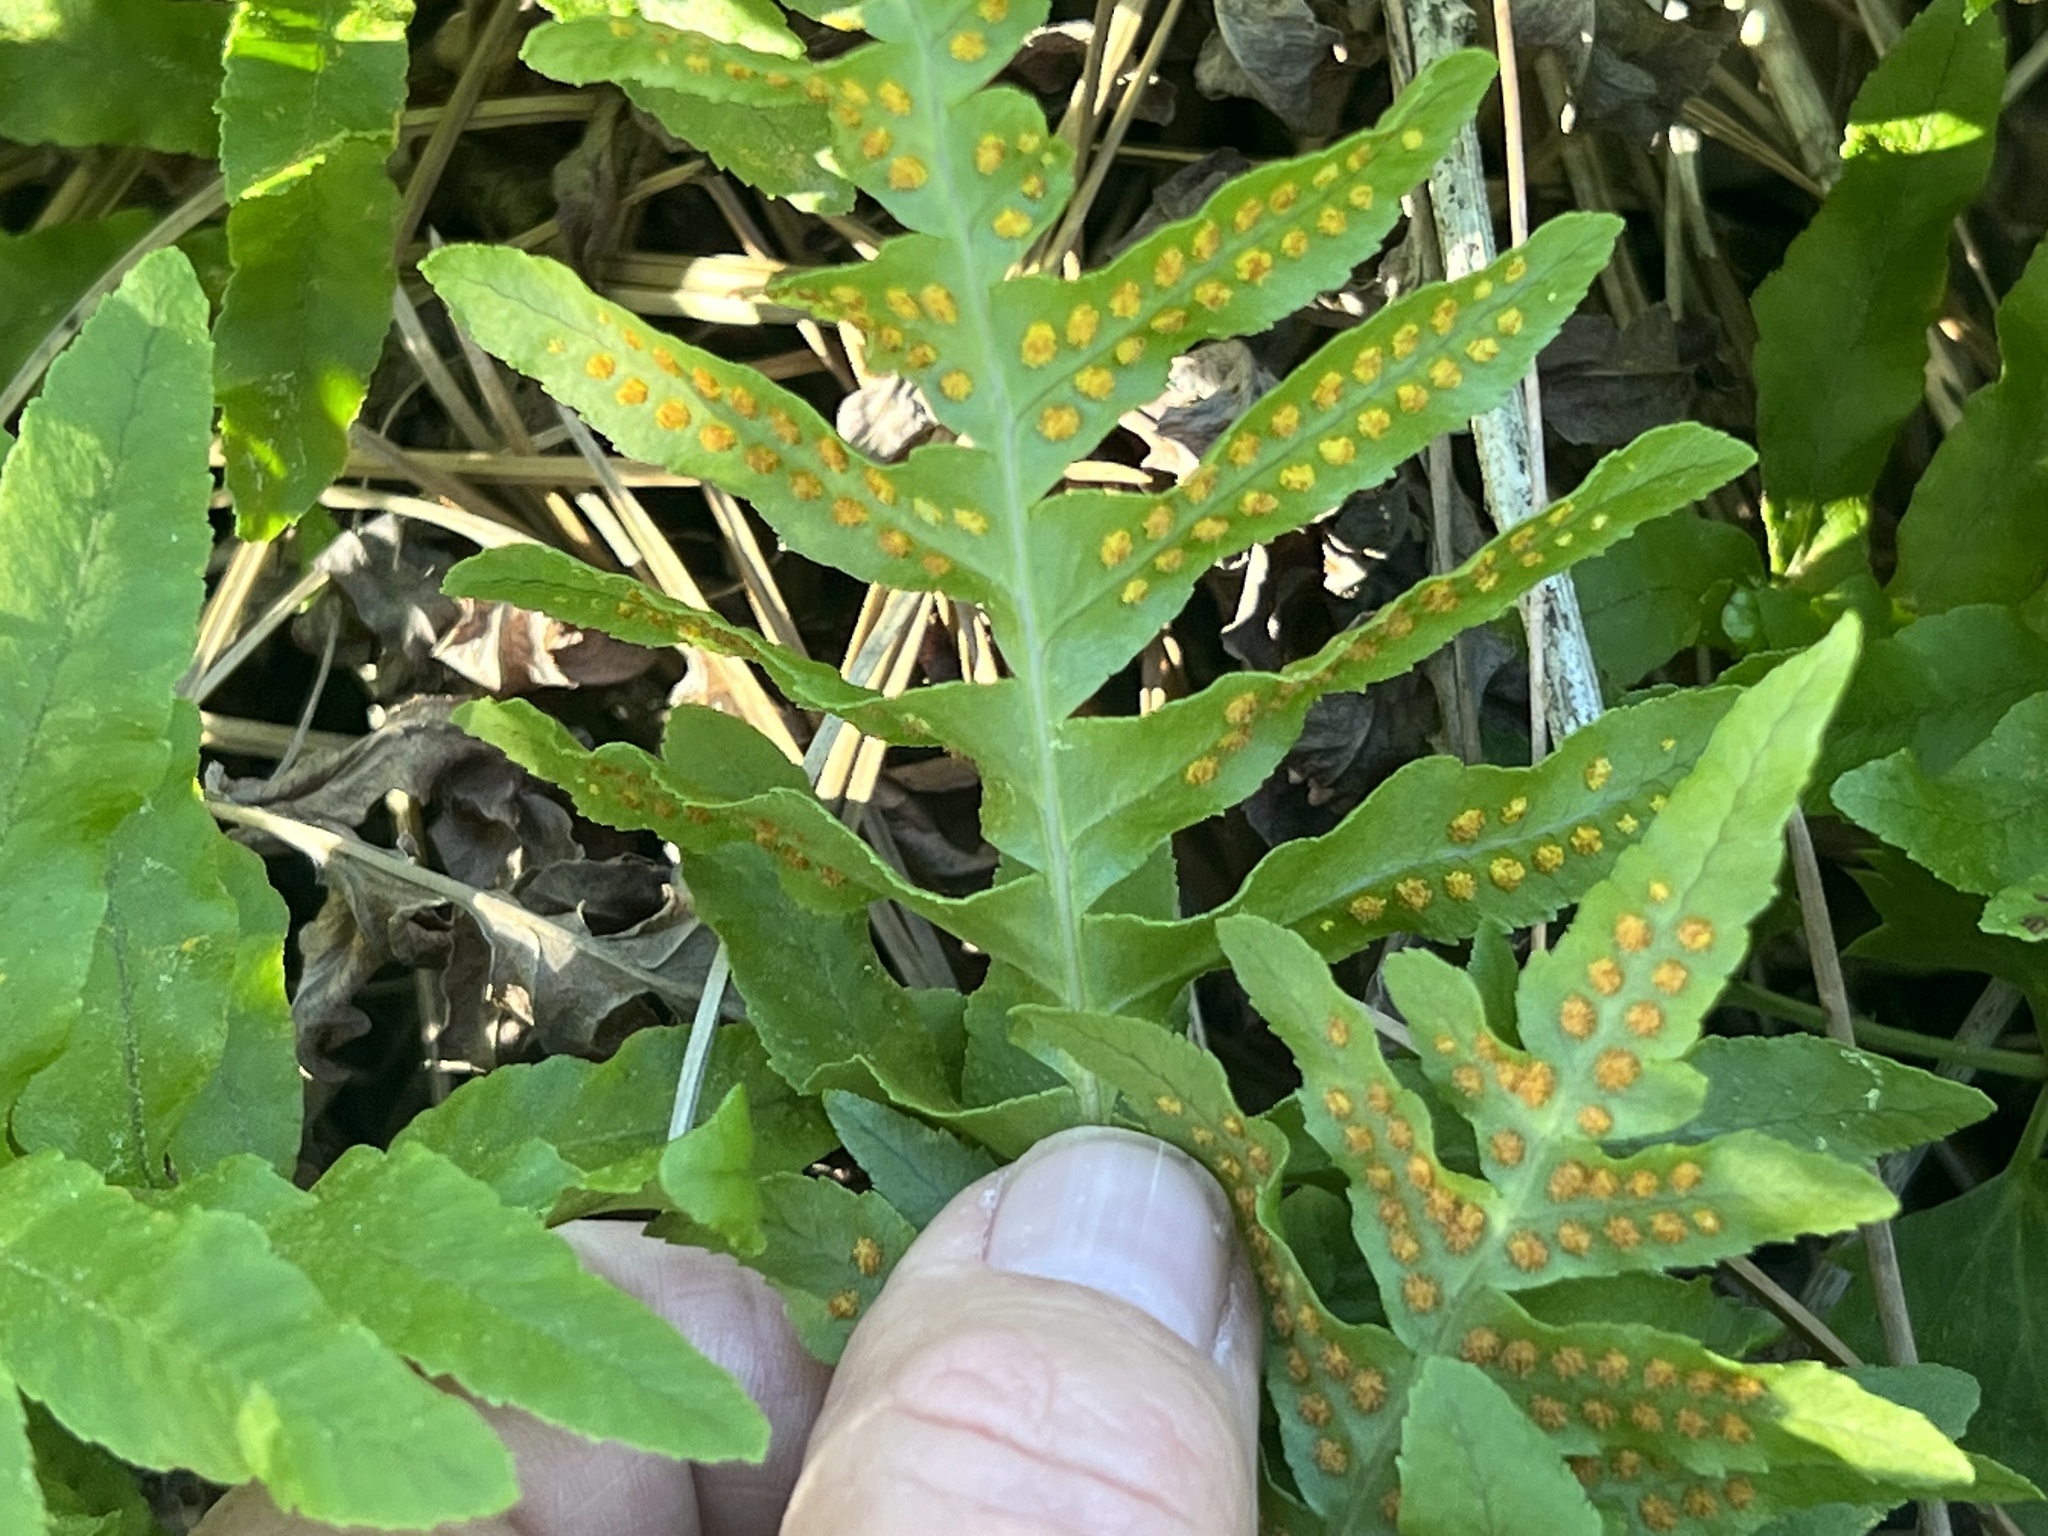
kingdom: Plantae
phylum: Tracheophyta
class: Polypodiopsida
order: Polypodiales
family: Polypodiaceae
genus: Polypodium
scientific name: Polypodium californicum
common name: California polypody
